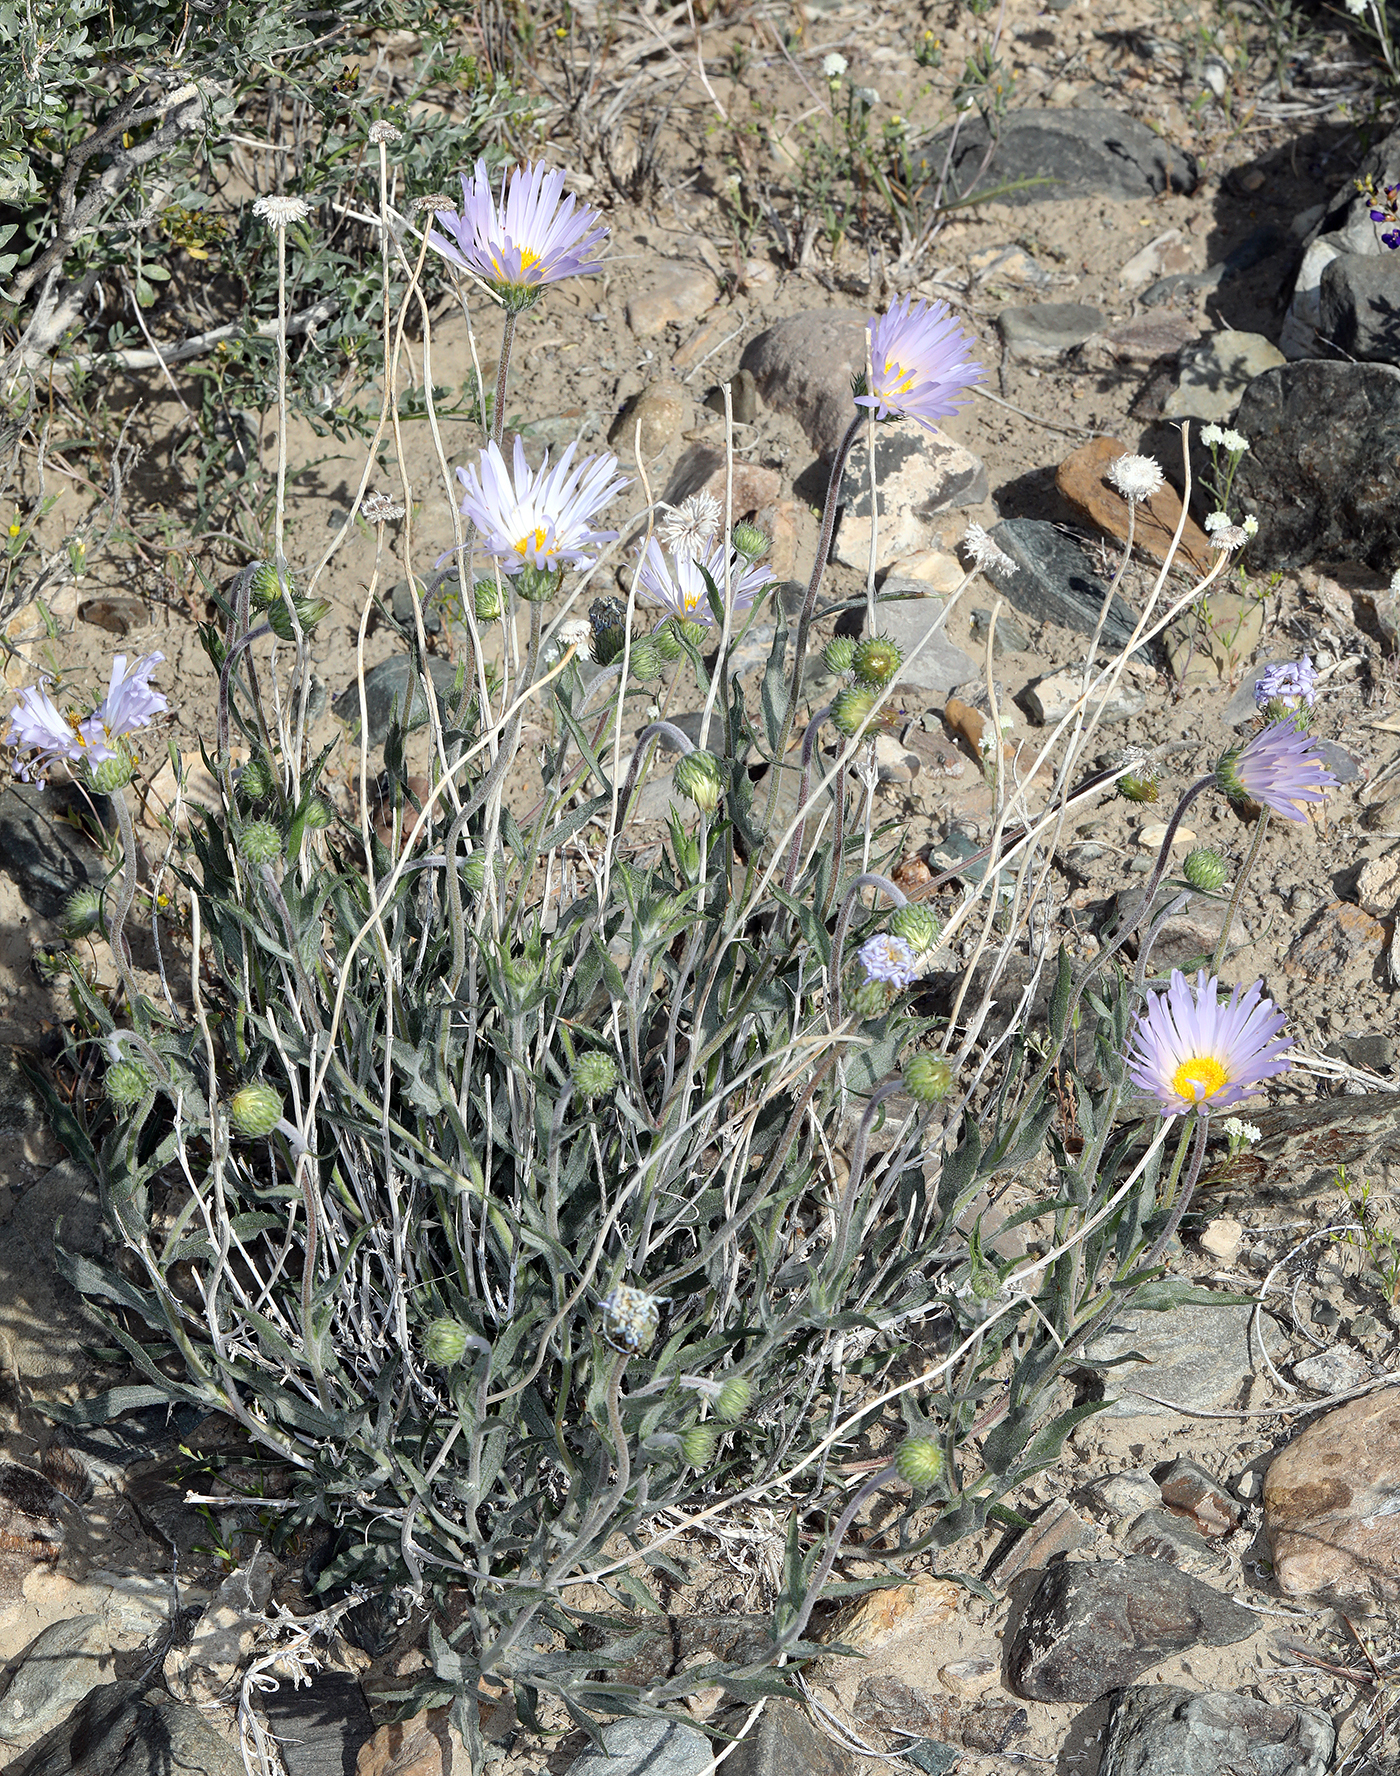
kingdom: Plantae
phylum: Tracheophyta
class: Magnoliopsida
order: Asterales
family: Asteraceae
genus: Xylorhiza
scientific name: Xylorhiza tortifolia
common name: Hurt-leaf woody-aster
